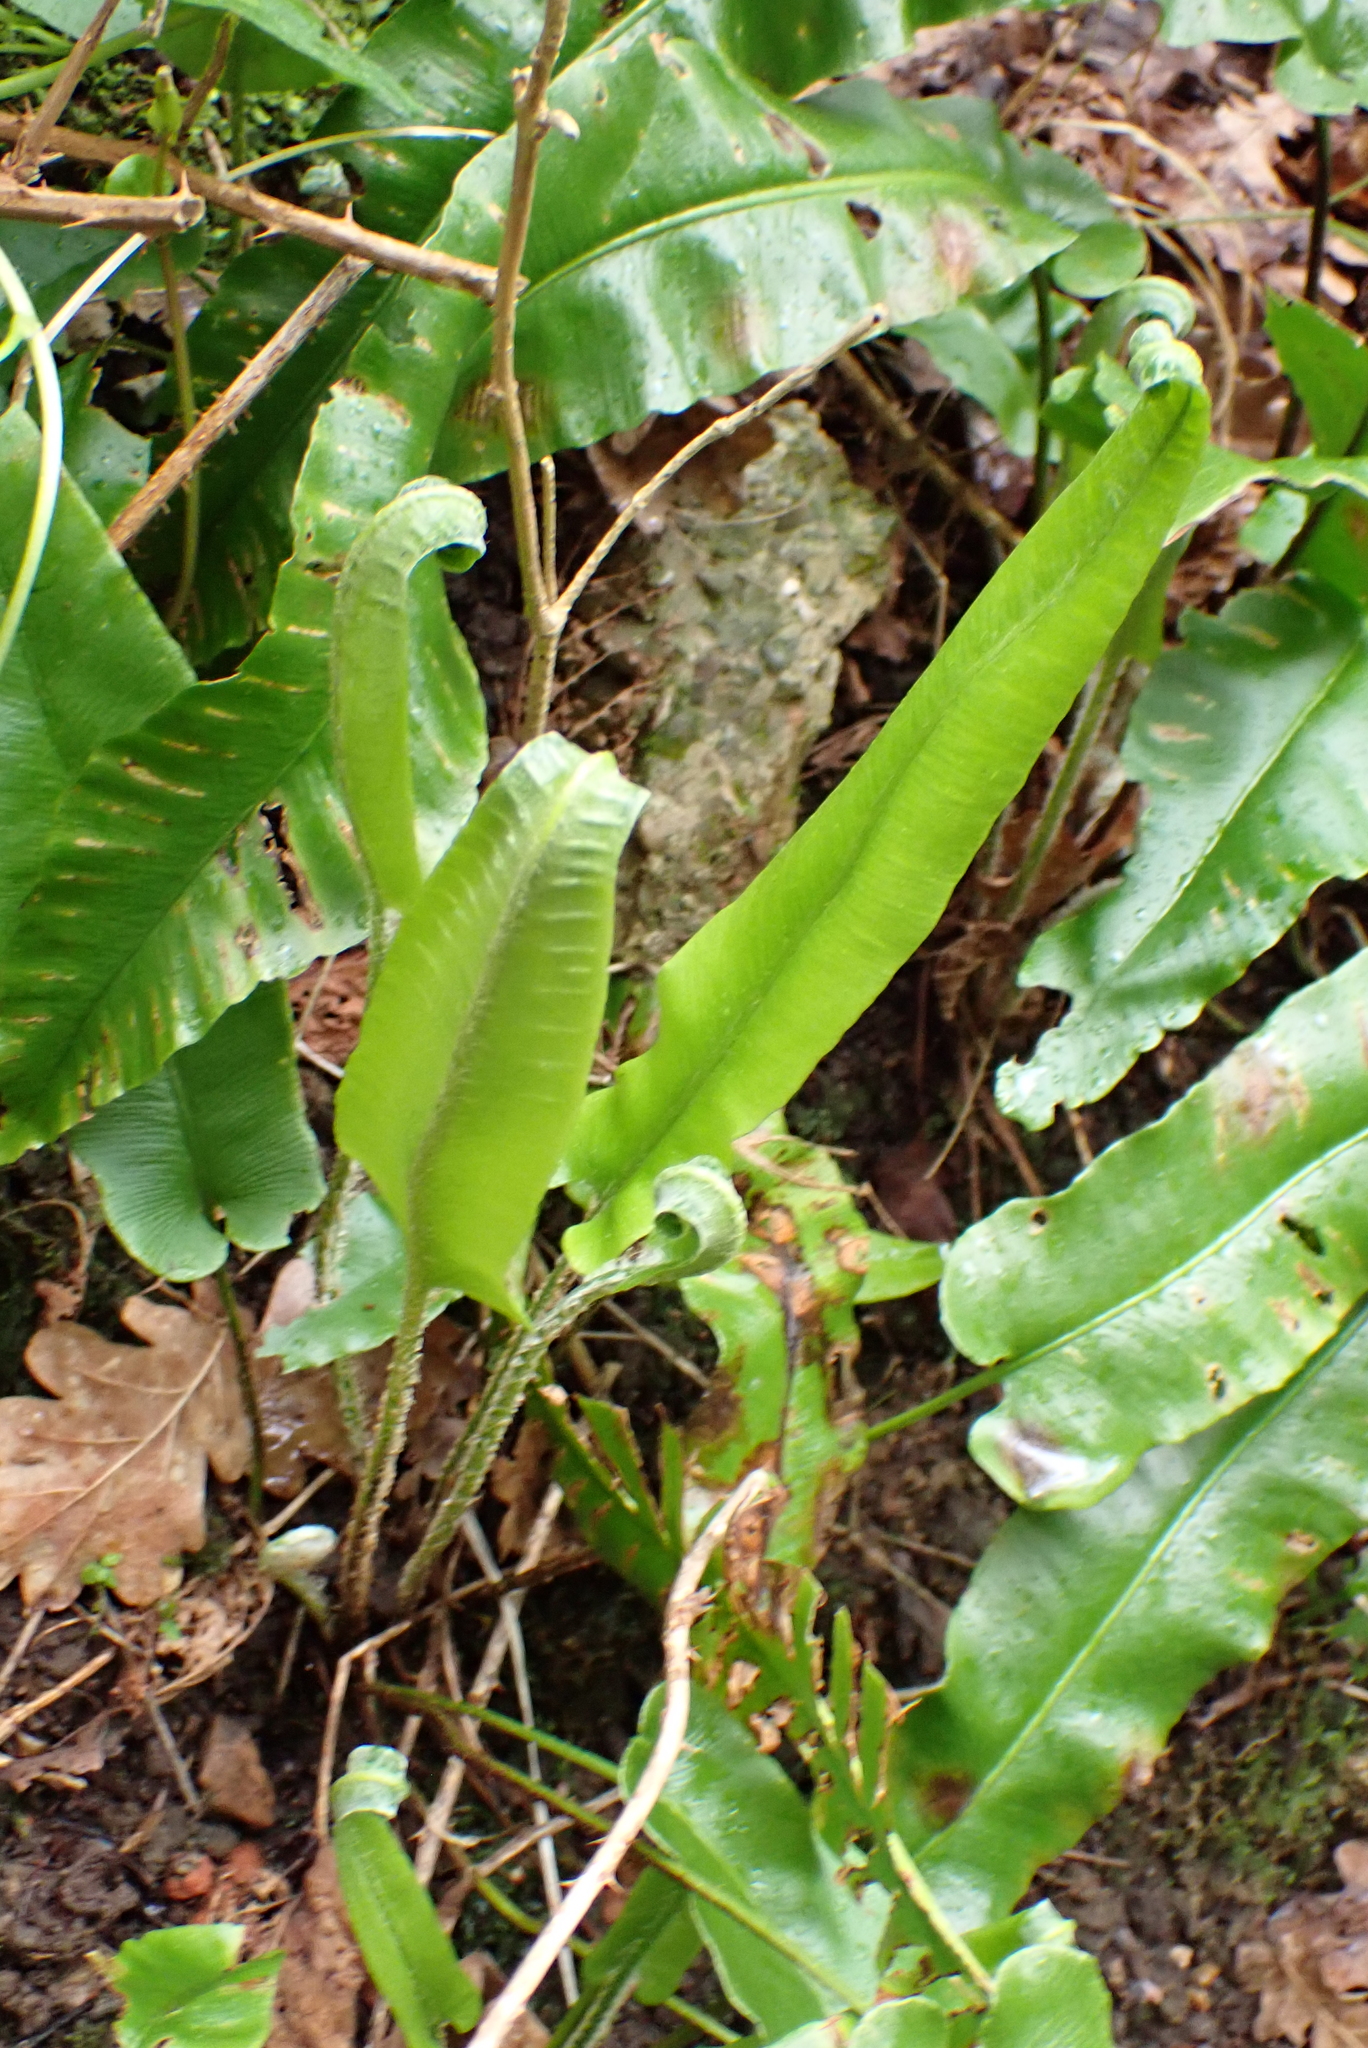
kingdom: Plantae
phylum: Tracheophyta
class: Polypodiopsida
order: Polypodiales
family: Aspleniaceae
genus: Asplenium
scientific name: Asplenium scolopendrium
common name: Hart's-tongue fern
